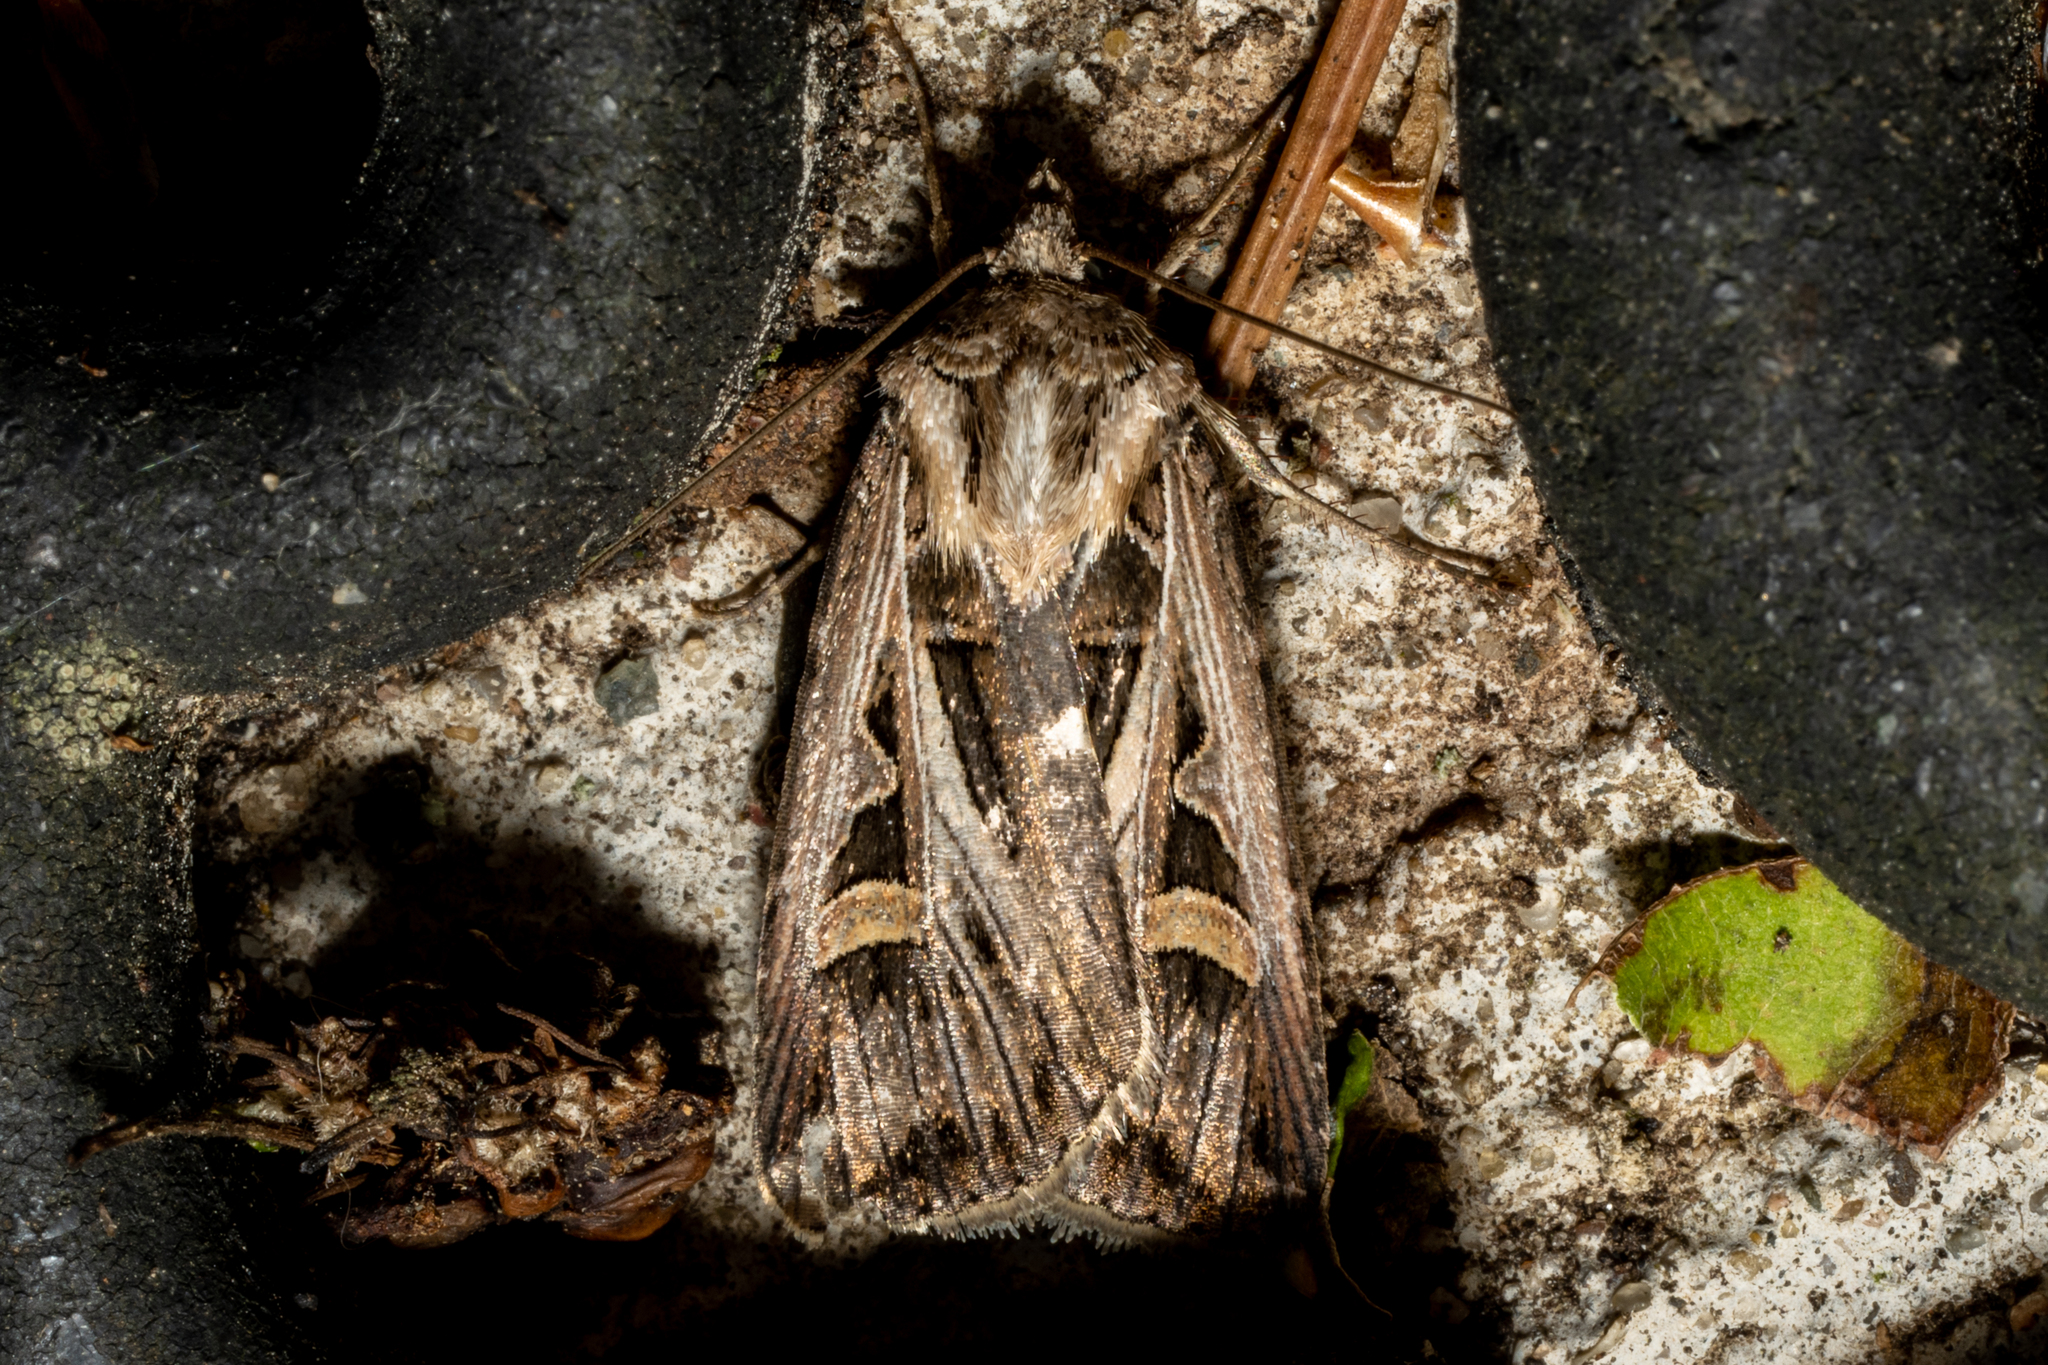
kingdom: Animalia
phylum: Arthropoda
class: Insecta
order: Lepidoptera
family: Noctuidae
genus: Feltia
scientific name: Feltia jaculifera
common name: Dingy cutworm moth
